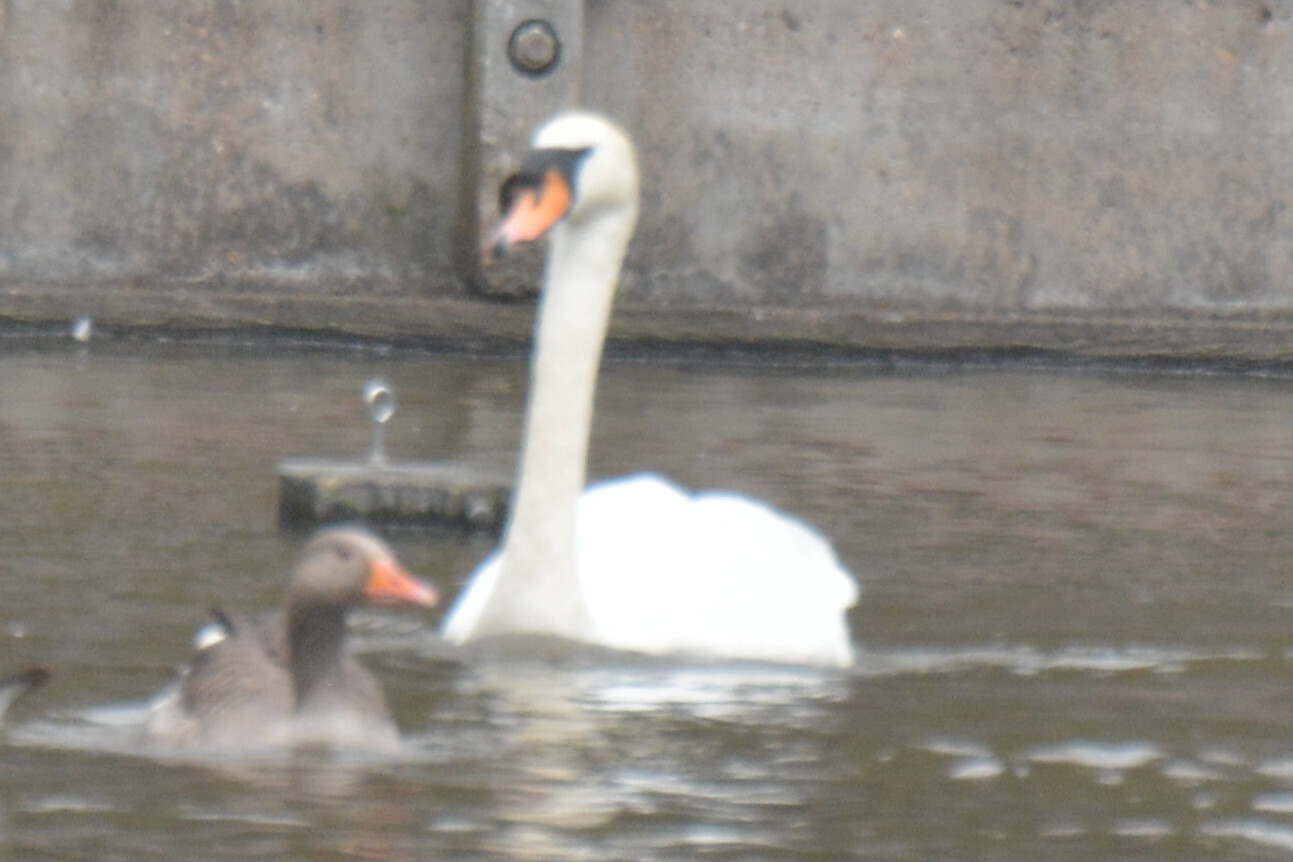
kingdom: Animalia
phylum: Chordata
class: Aves
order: Anseriformes
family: Anatidae
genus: Cygnus
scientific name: Cygnus olor
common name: Mute swan
